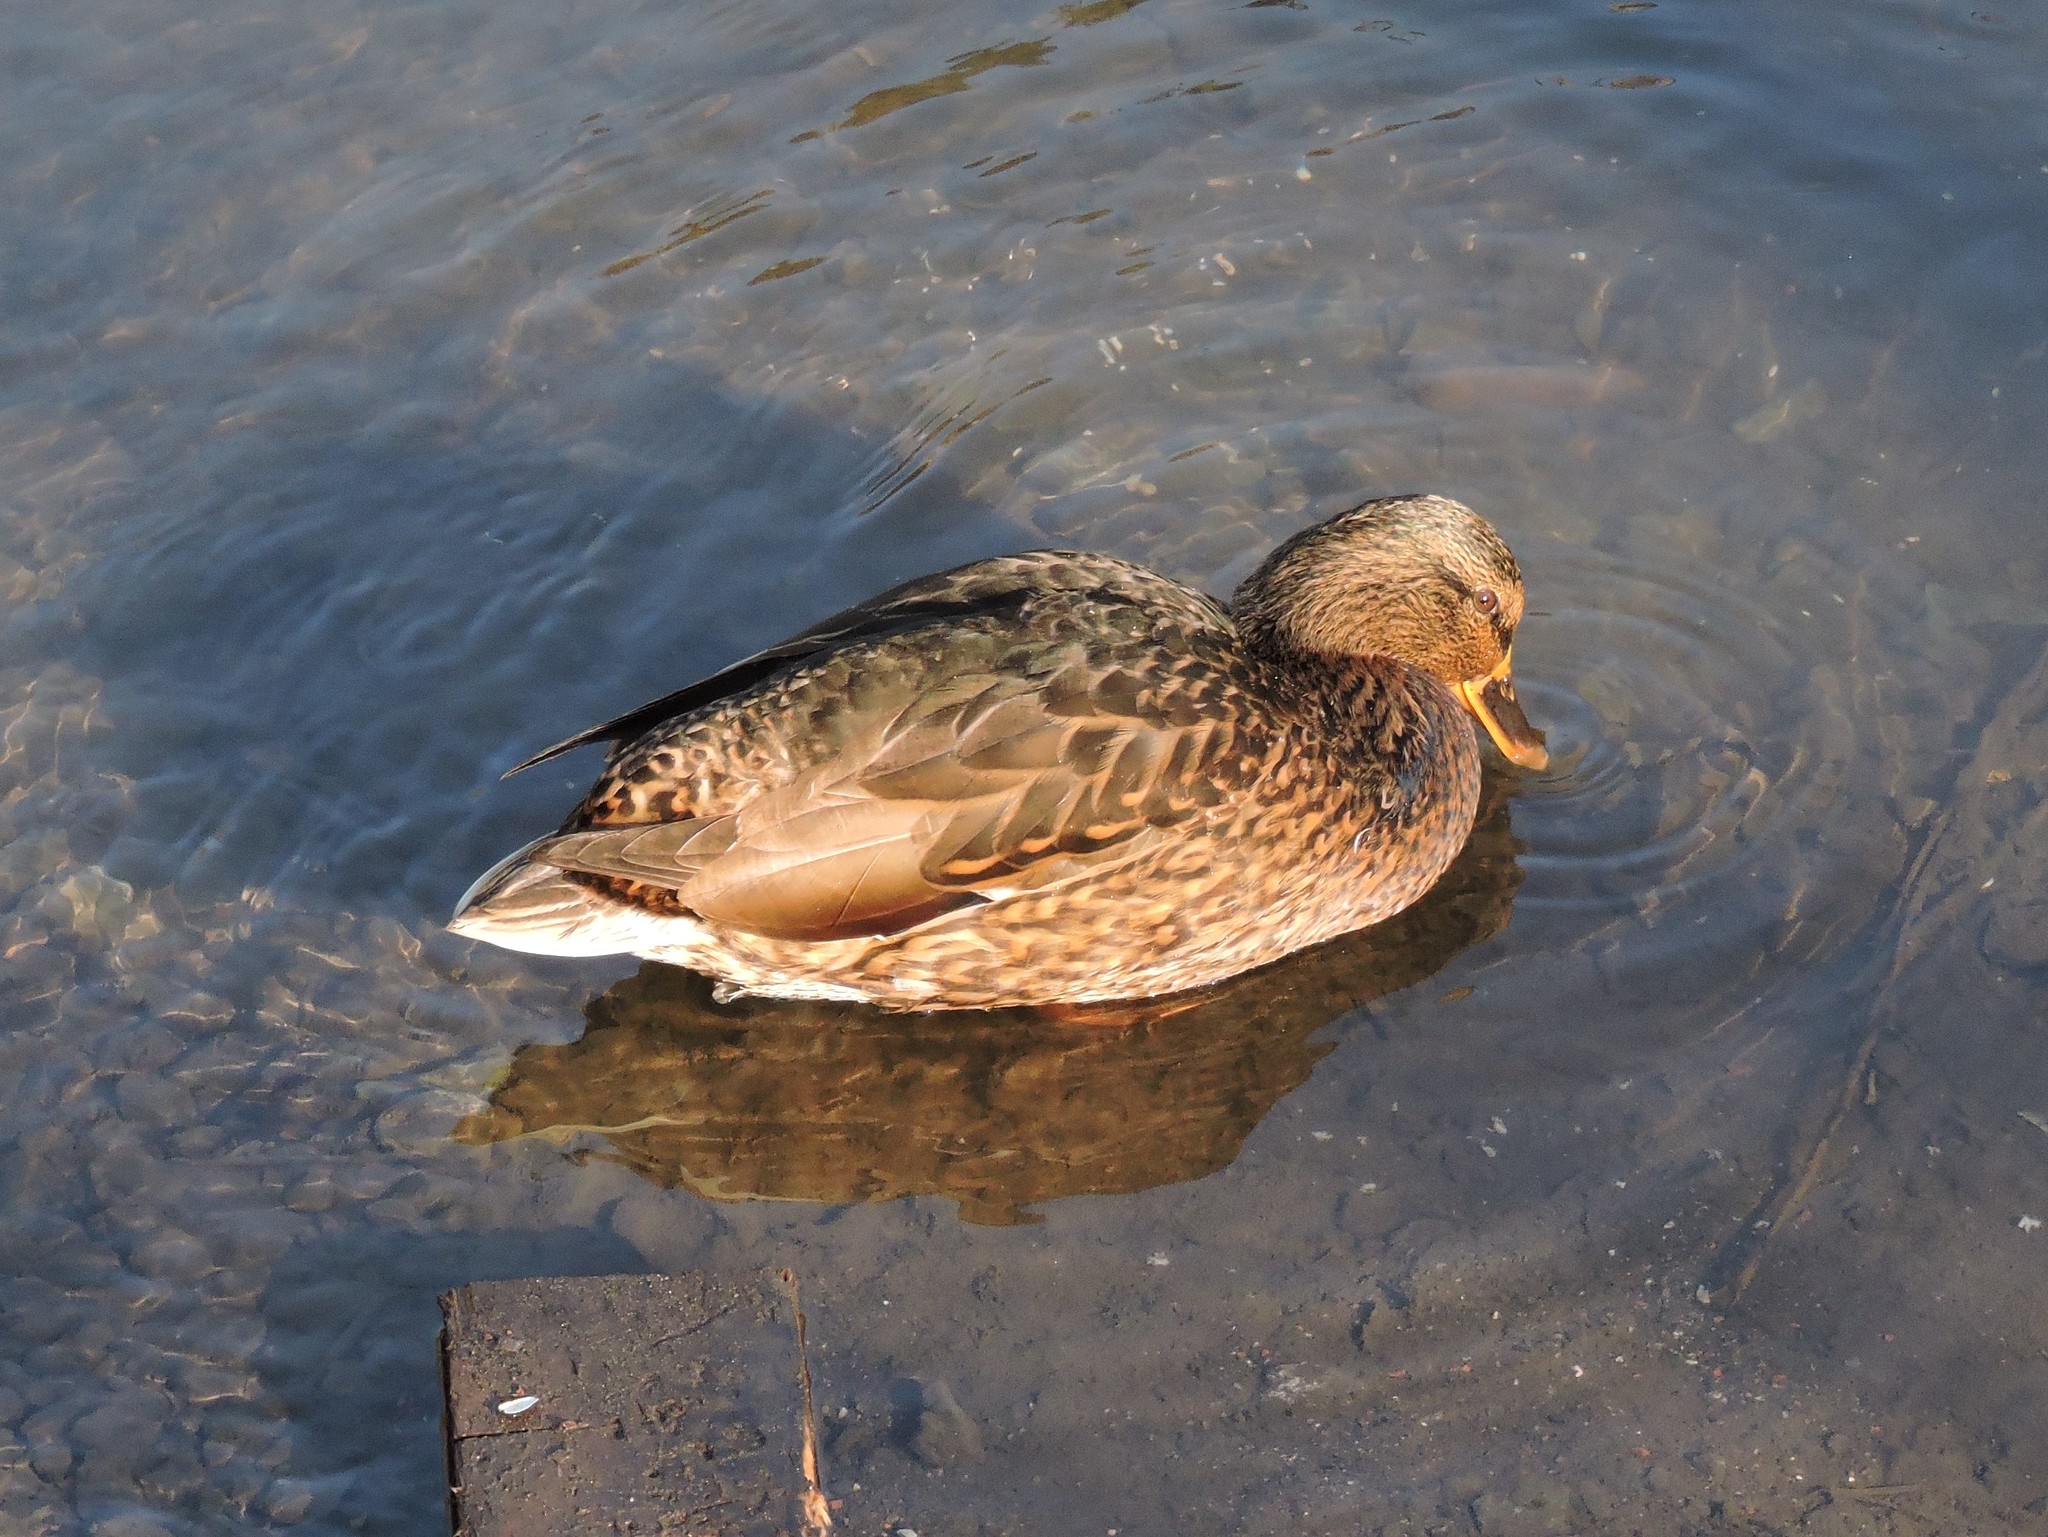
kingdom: Animalia
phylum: Chordata
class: Aves
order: Anseriformes
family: Anatidae
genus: Anas
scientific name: Anas platyrhynchos
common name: Mallard
